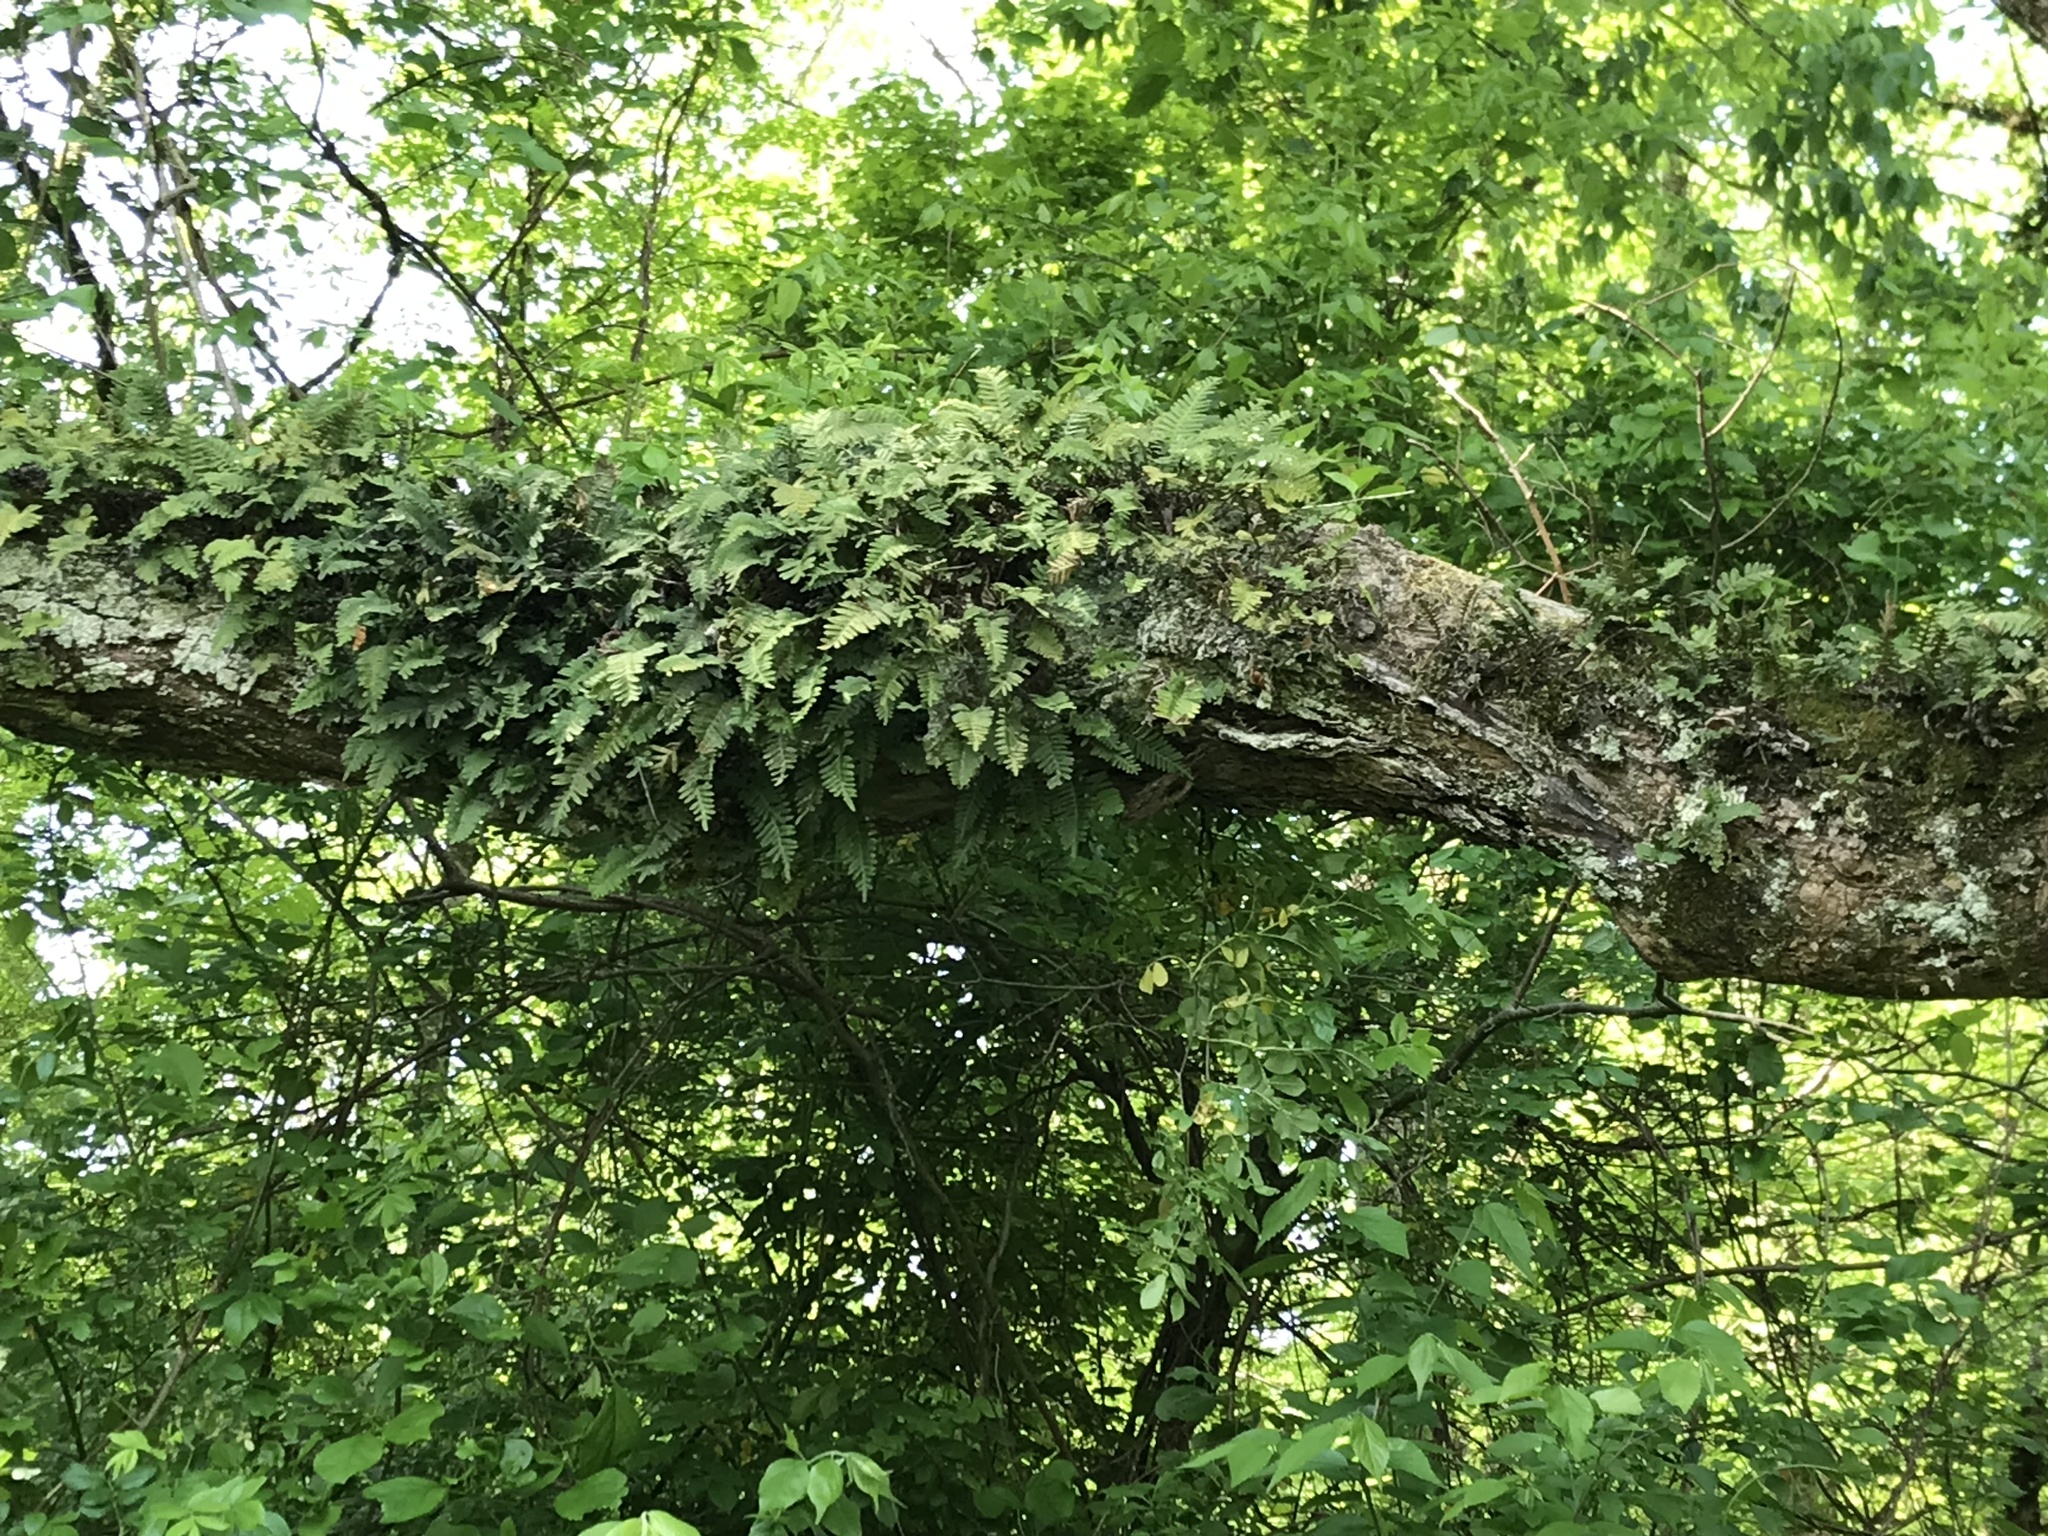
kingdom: Plantae
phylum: Tracheophyta
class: Polypodiopsida
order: Polypodiales
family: Polypodiaceae
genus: Pleopeltis
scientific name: Pleopeltis michauxiana
